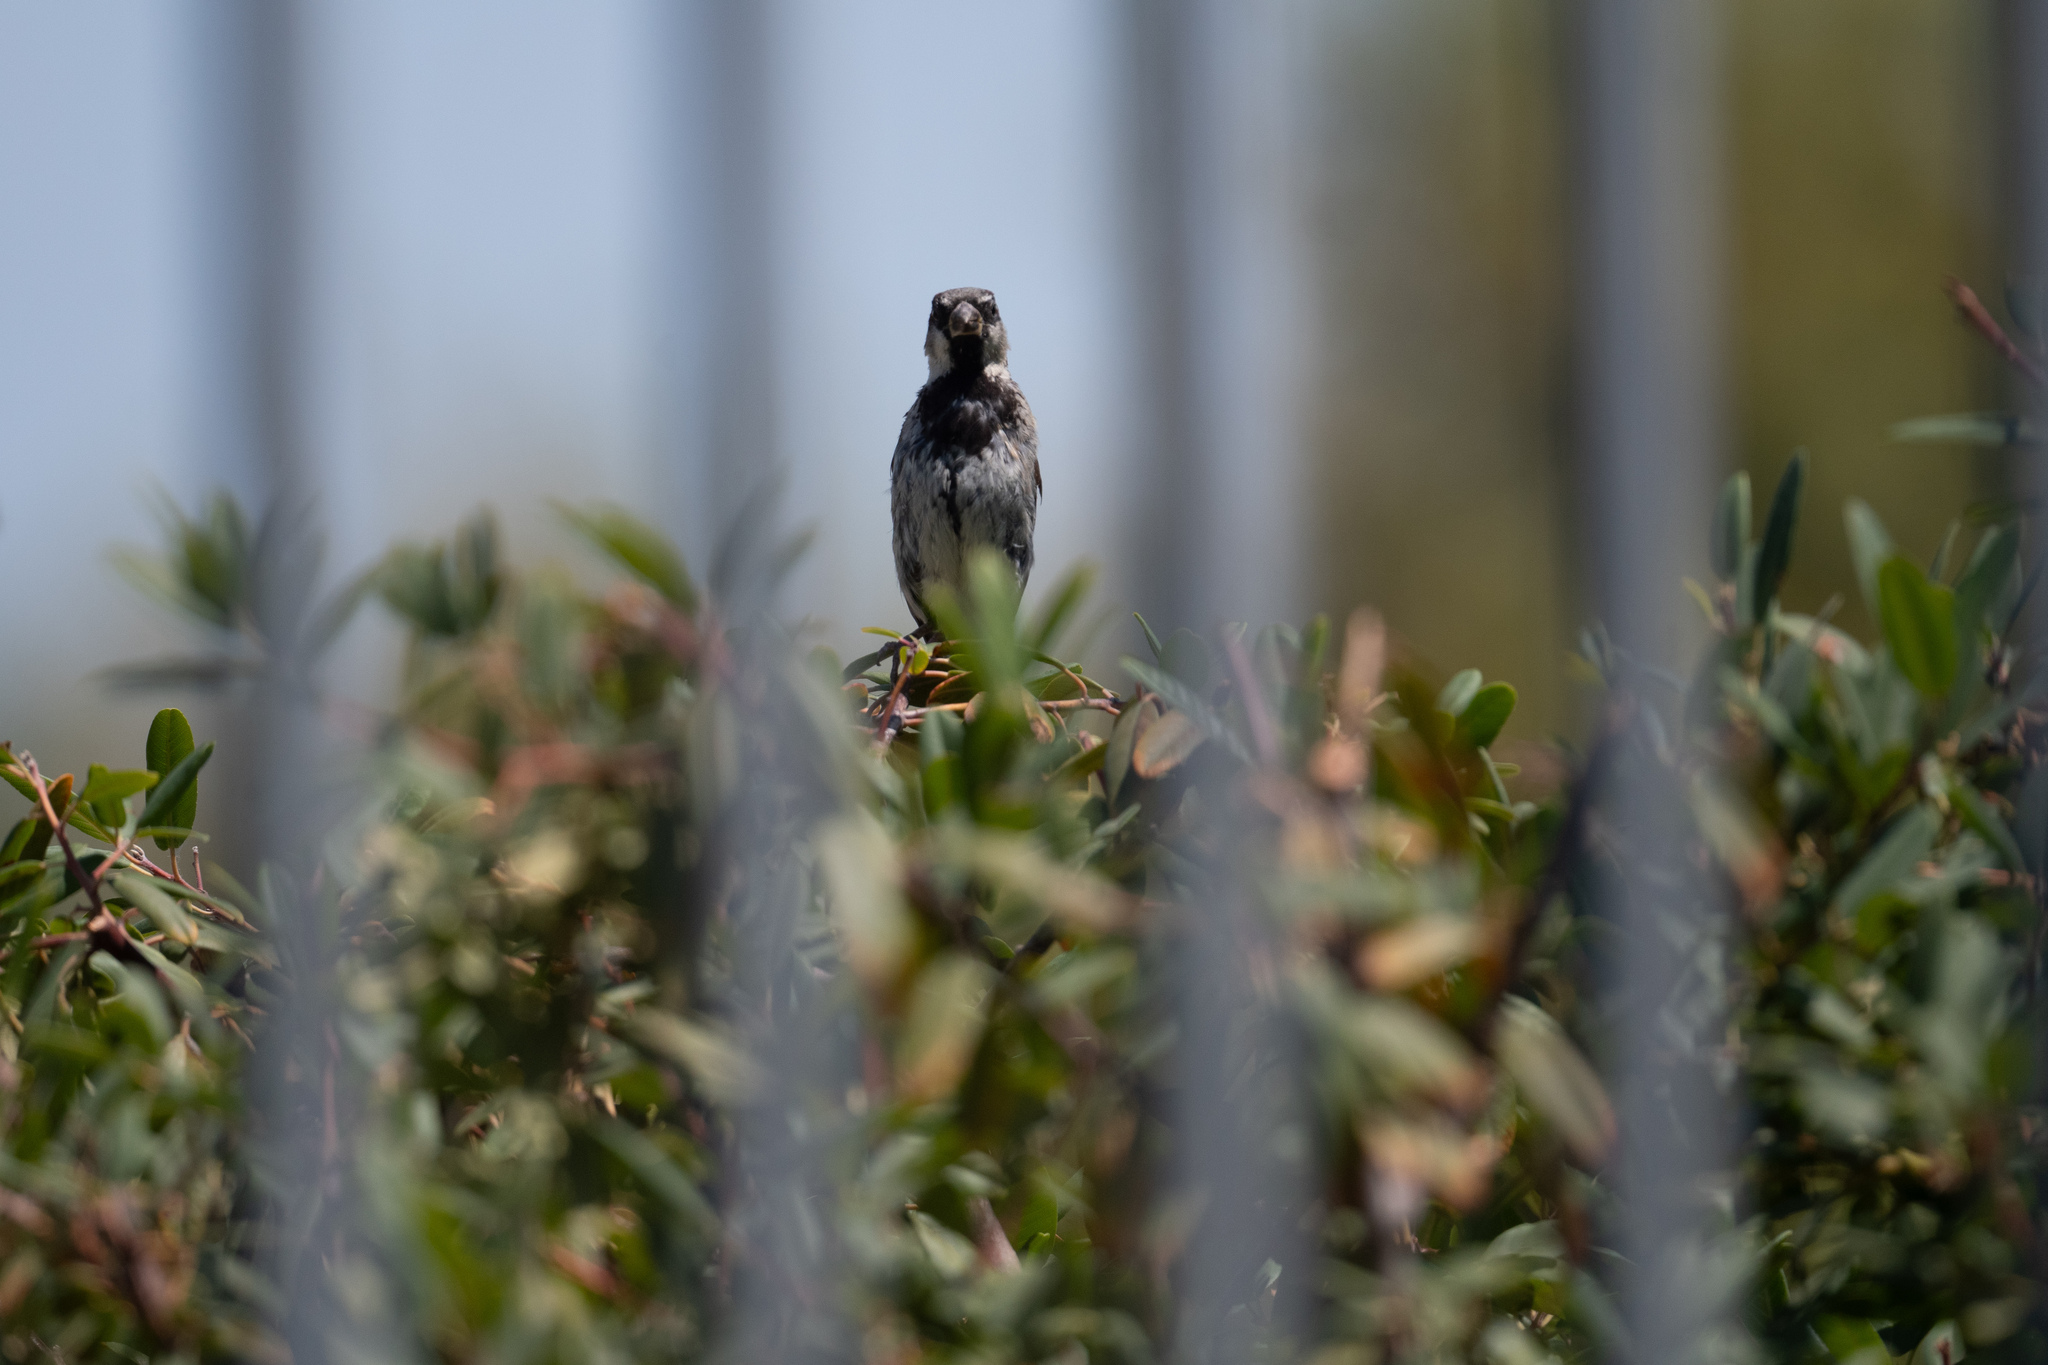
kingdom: Animalia
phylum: Chordata
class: Aves
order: Passeriformes
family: Passeridae
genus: Passer
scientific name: Passer domesticus
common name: House sparrow
